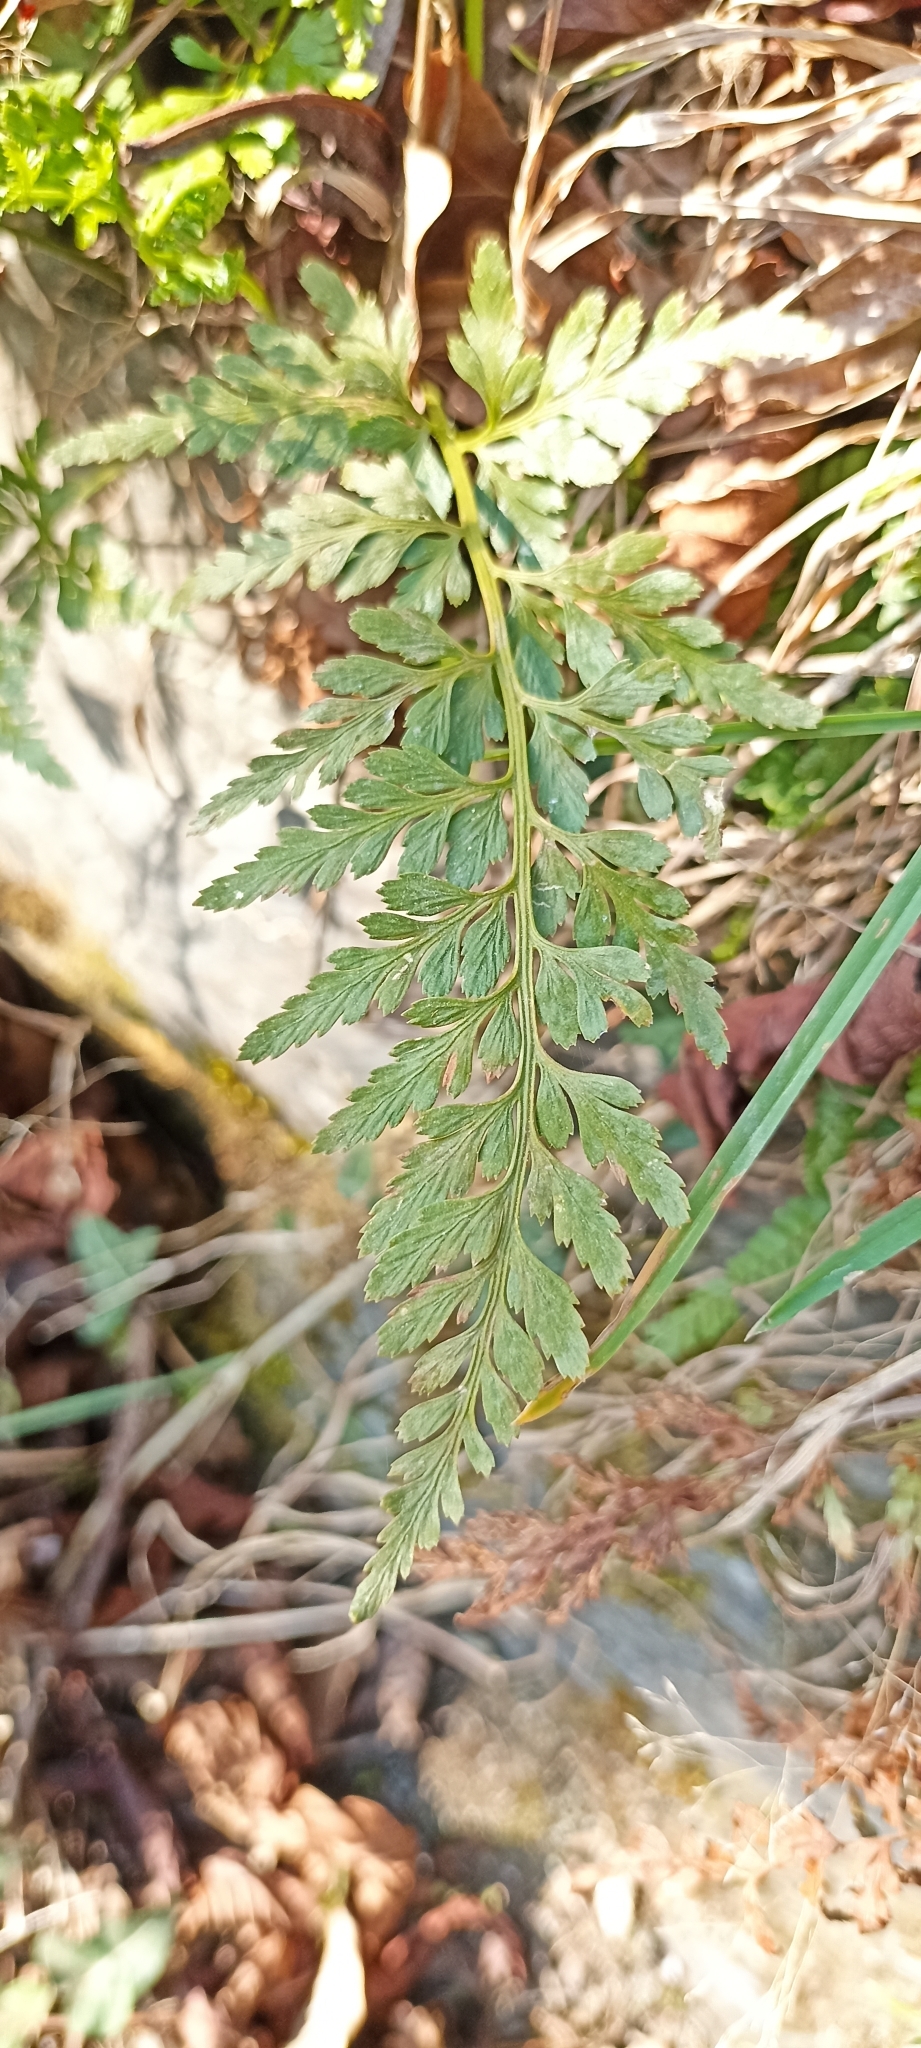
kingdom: Plantae
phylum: Tracheophyta
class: Polypodiopsida
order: Polypodiales
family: Aspleniaceae
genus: Asplenium
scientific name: Asplenium adiantum-nigrum
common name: Black spleenwort
